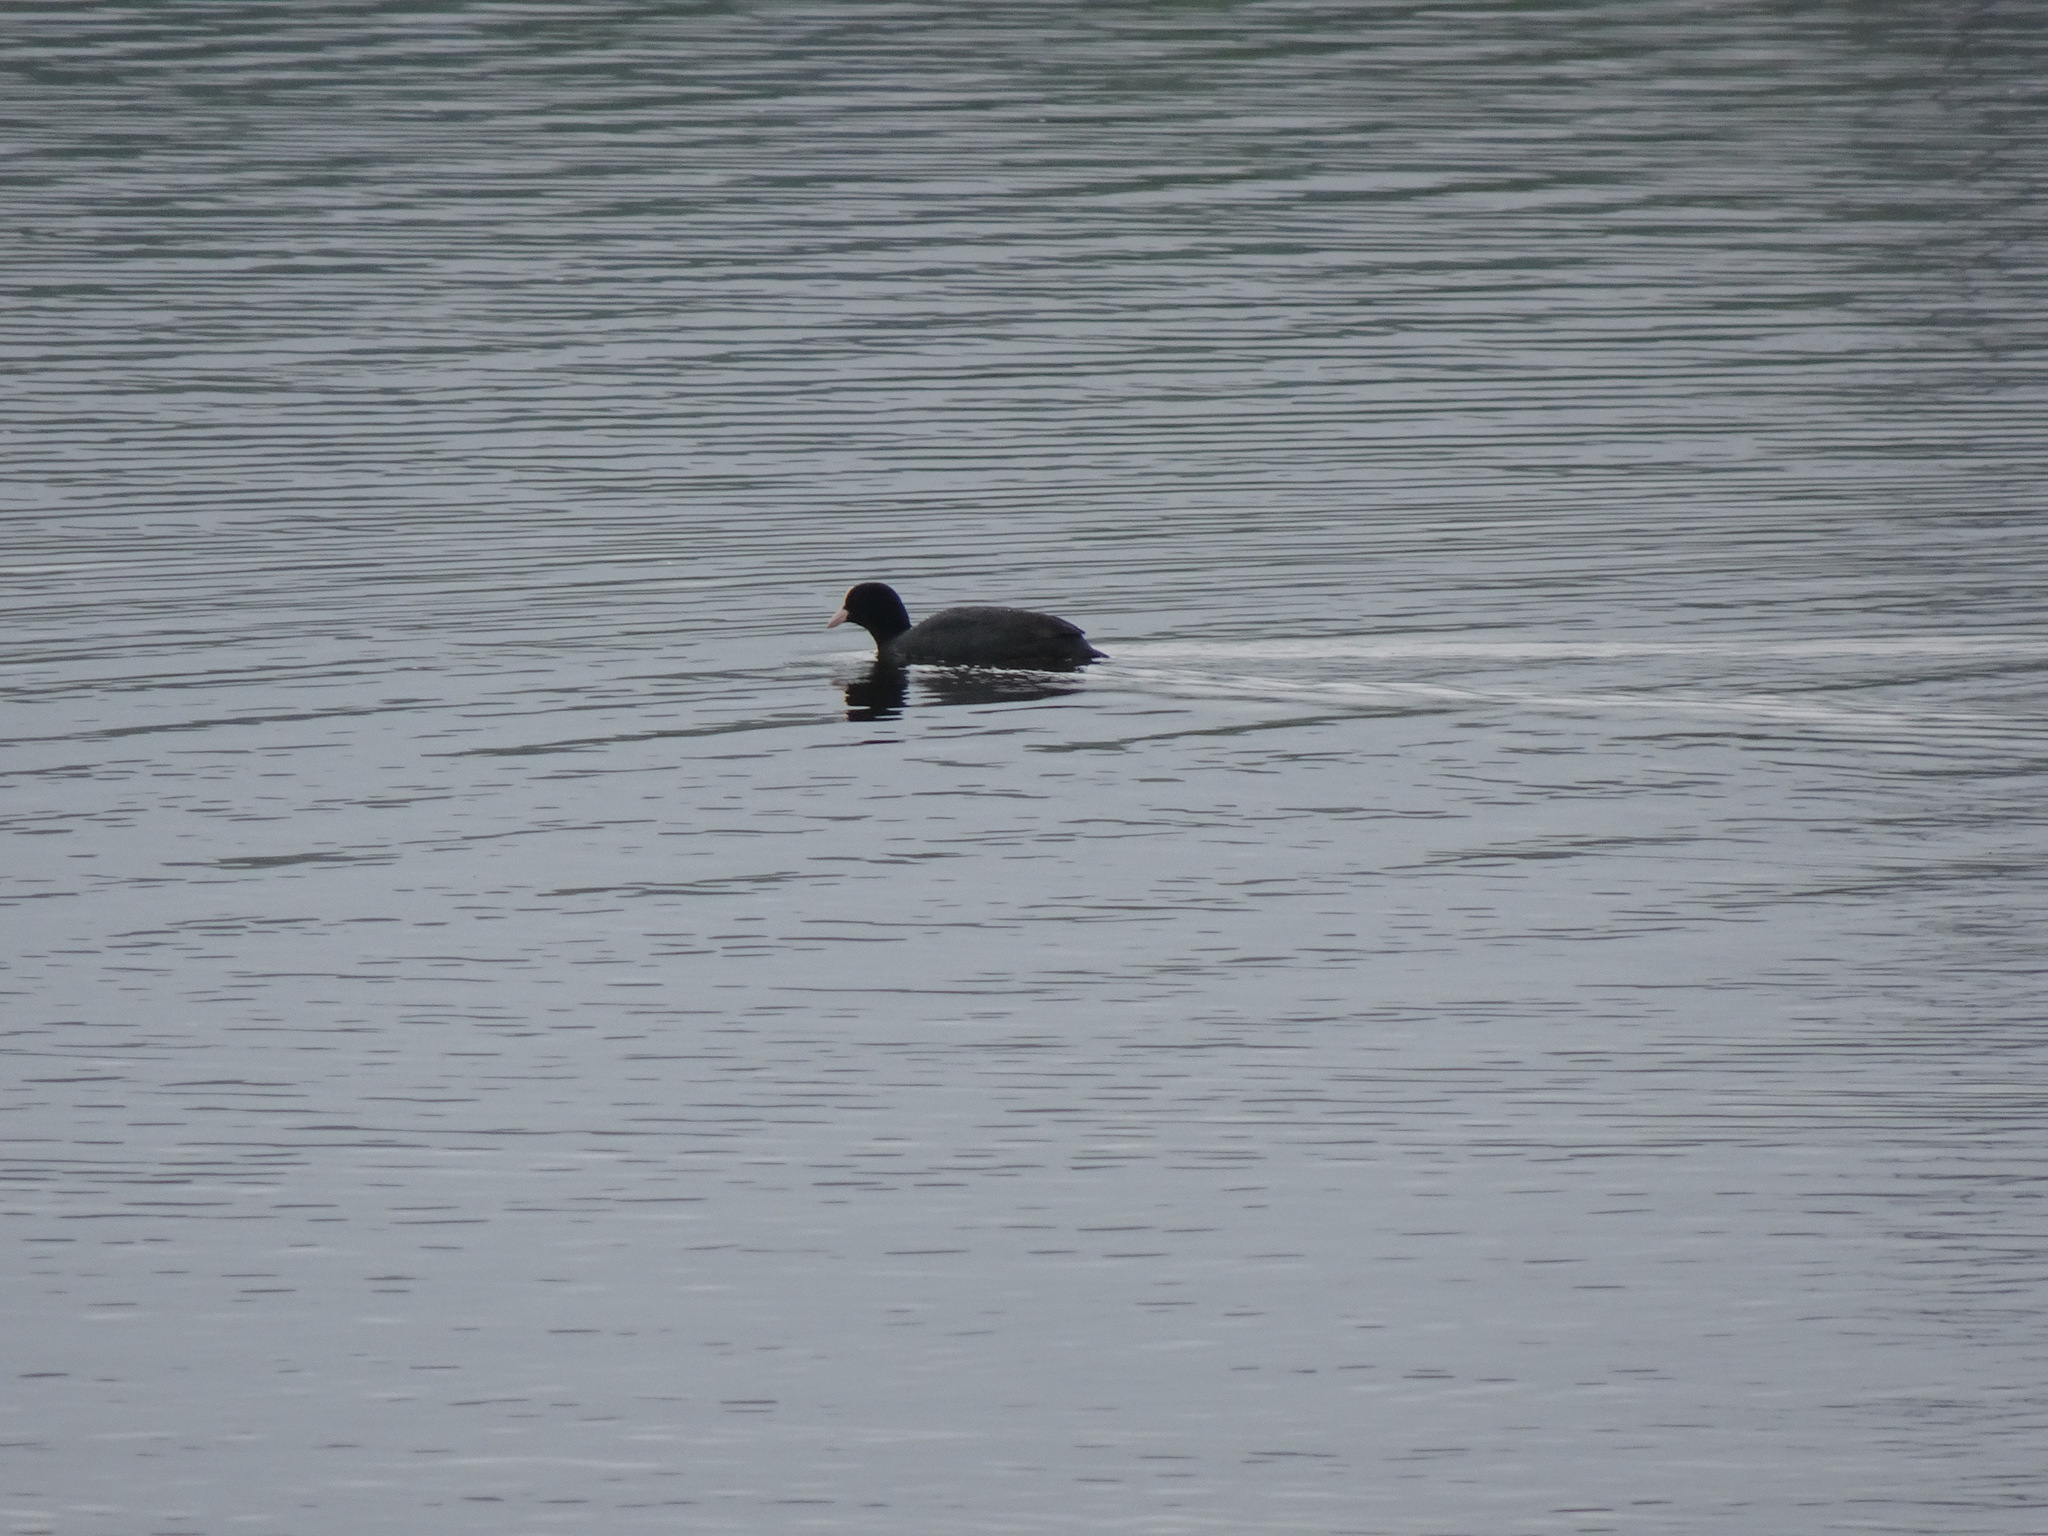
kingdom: Animalia
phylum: Chordata
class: Aves
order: Gruiformes
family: Rallidae
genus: Fulica
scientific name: Fulica atra
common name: Eurasian coot
